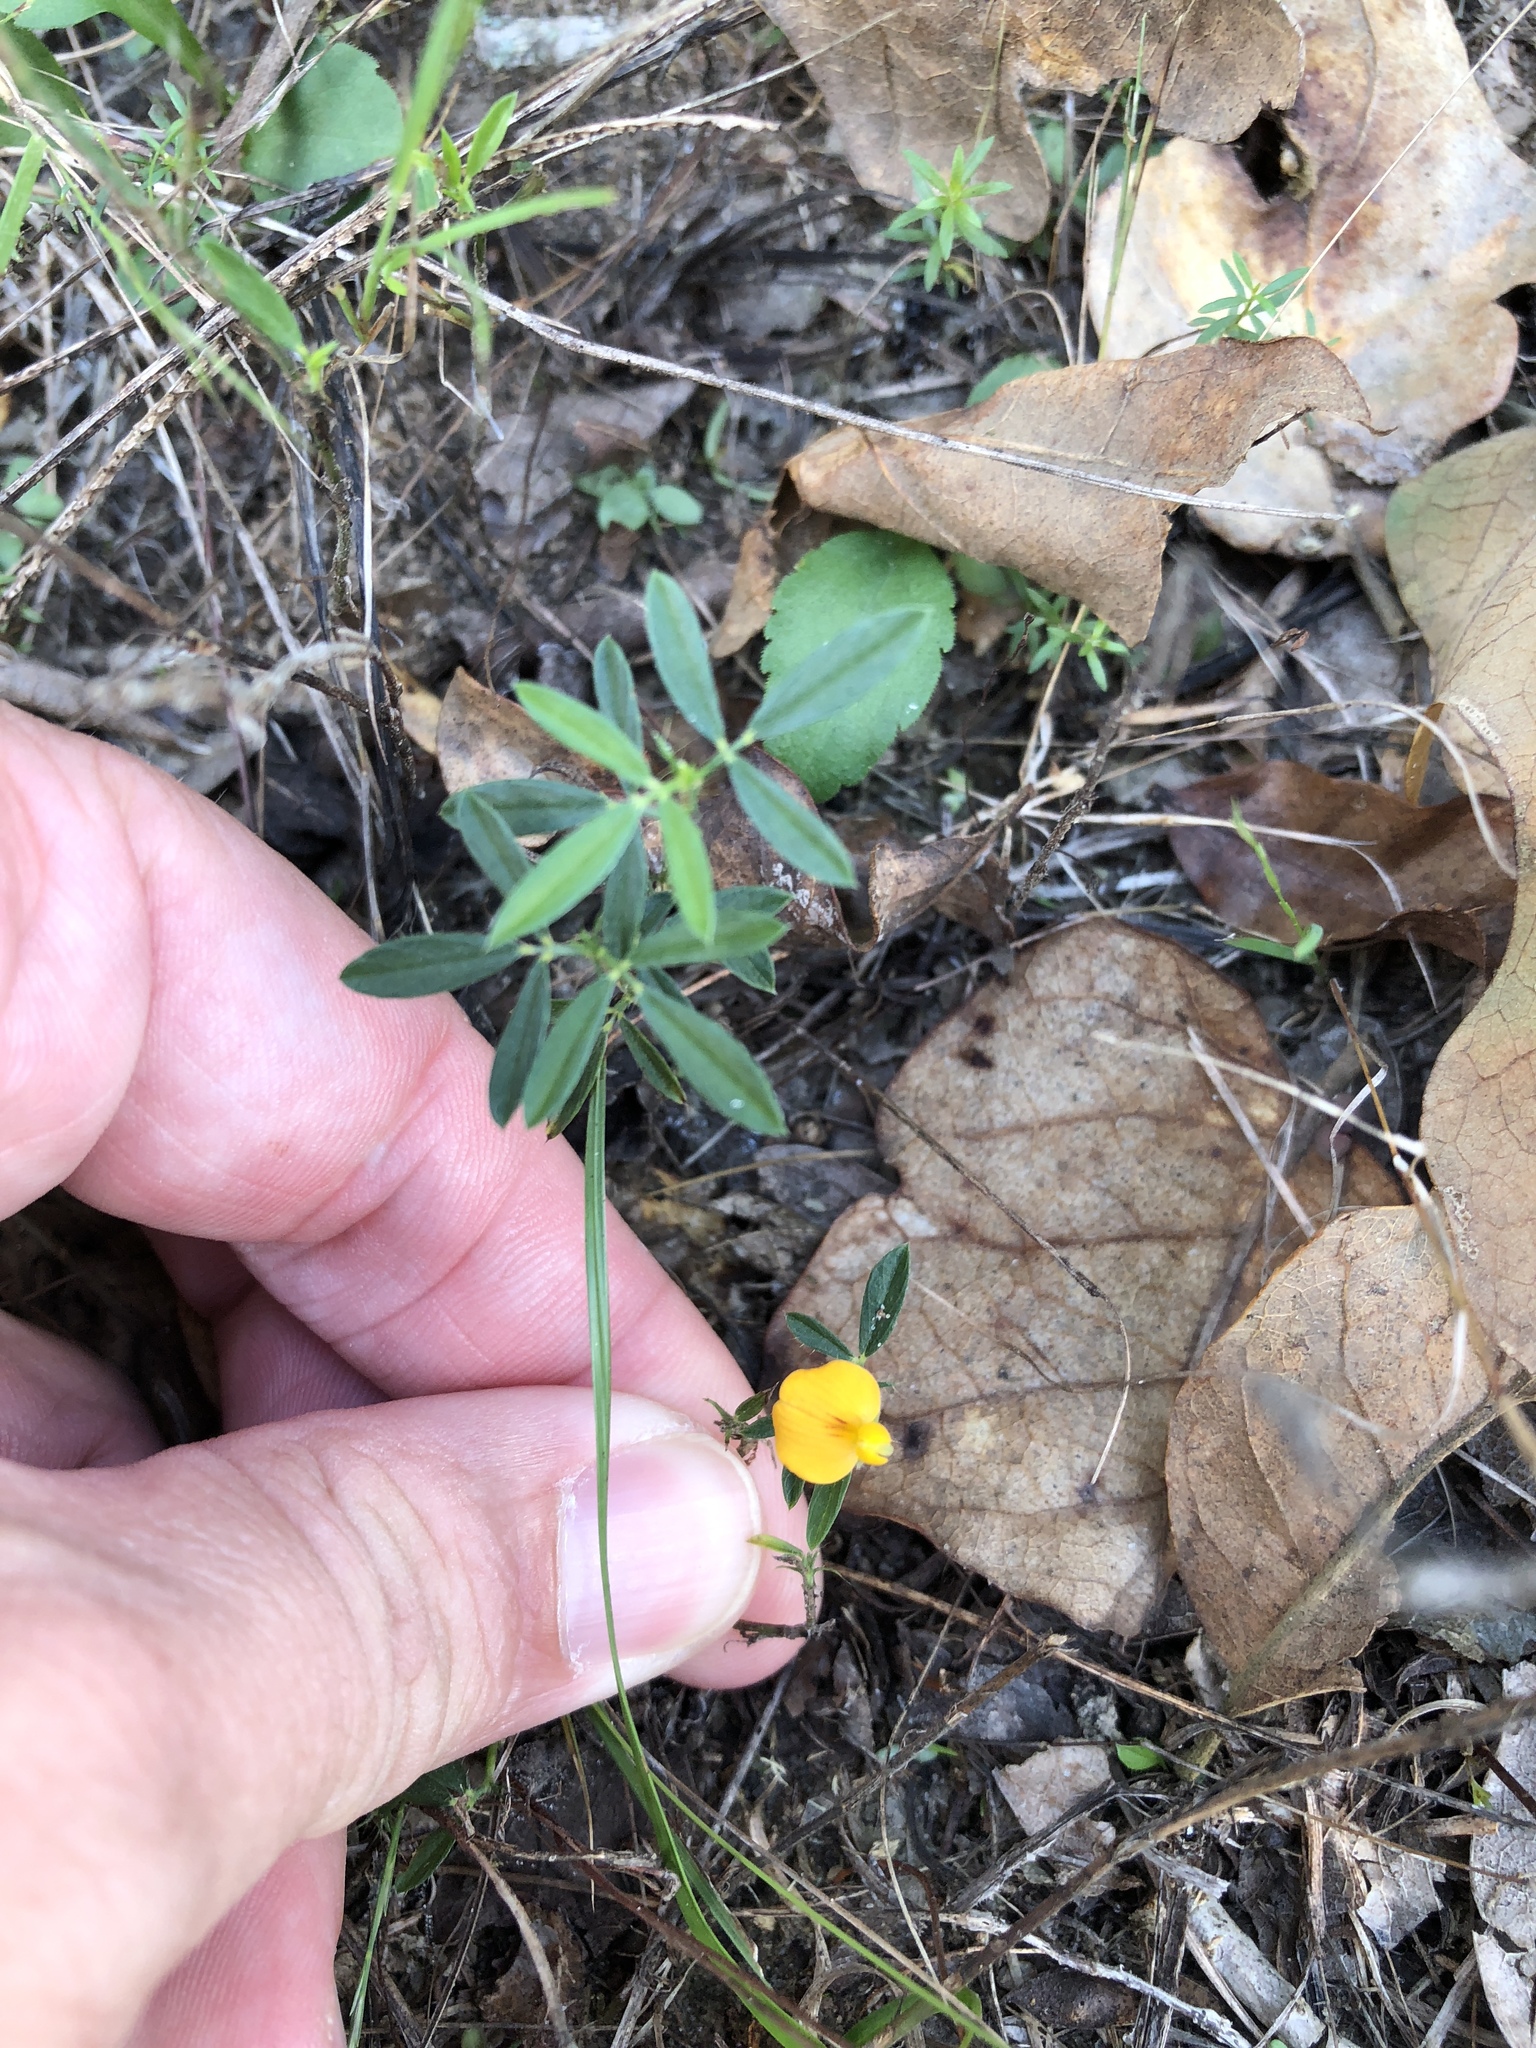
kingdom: Plantae
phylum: Tracheophyta
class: Magnoliopsida
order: Fabales
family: Fabaceae
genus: Stylosanthes
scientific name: Stylosanthes biflora
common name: Two-flower pencil-flower
